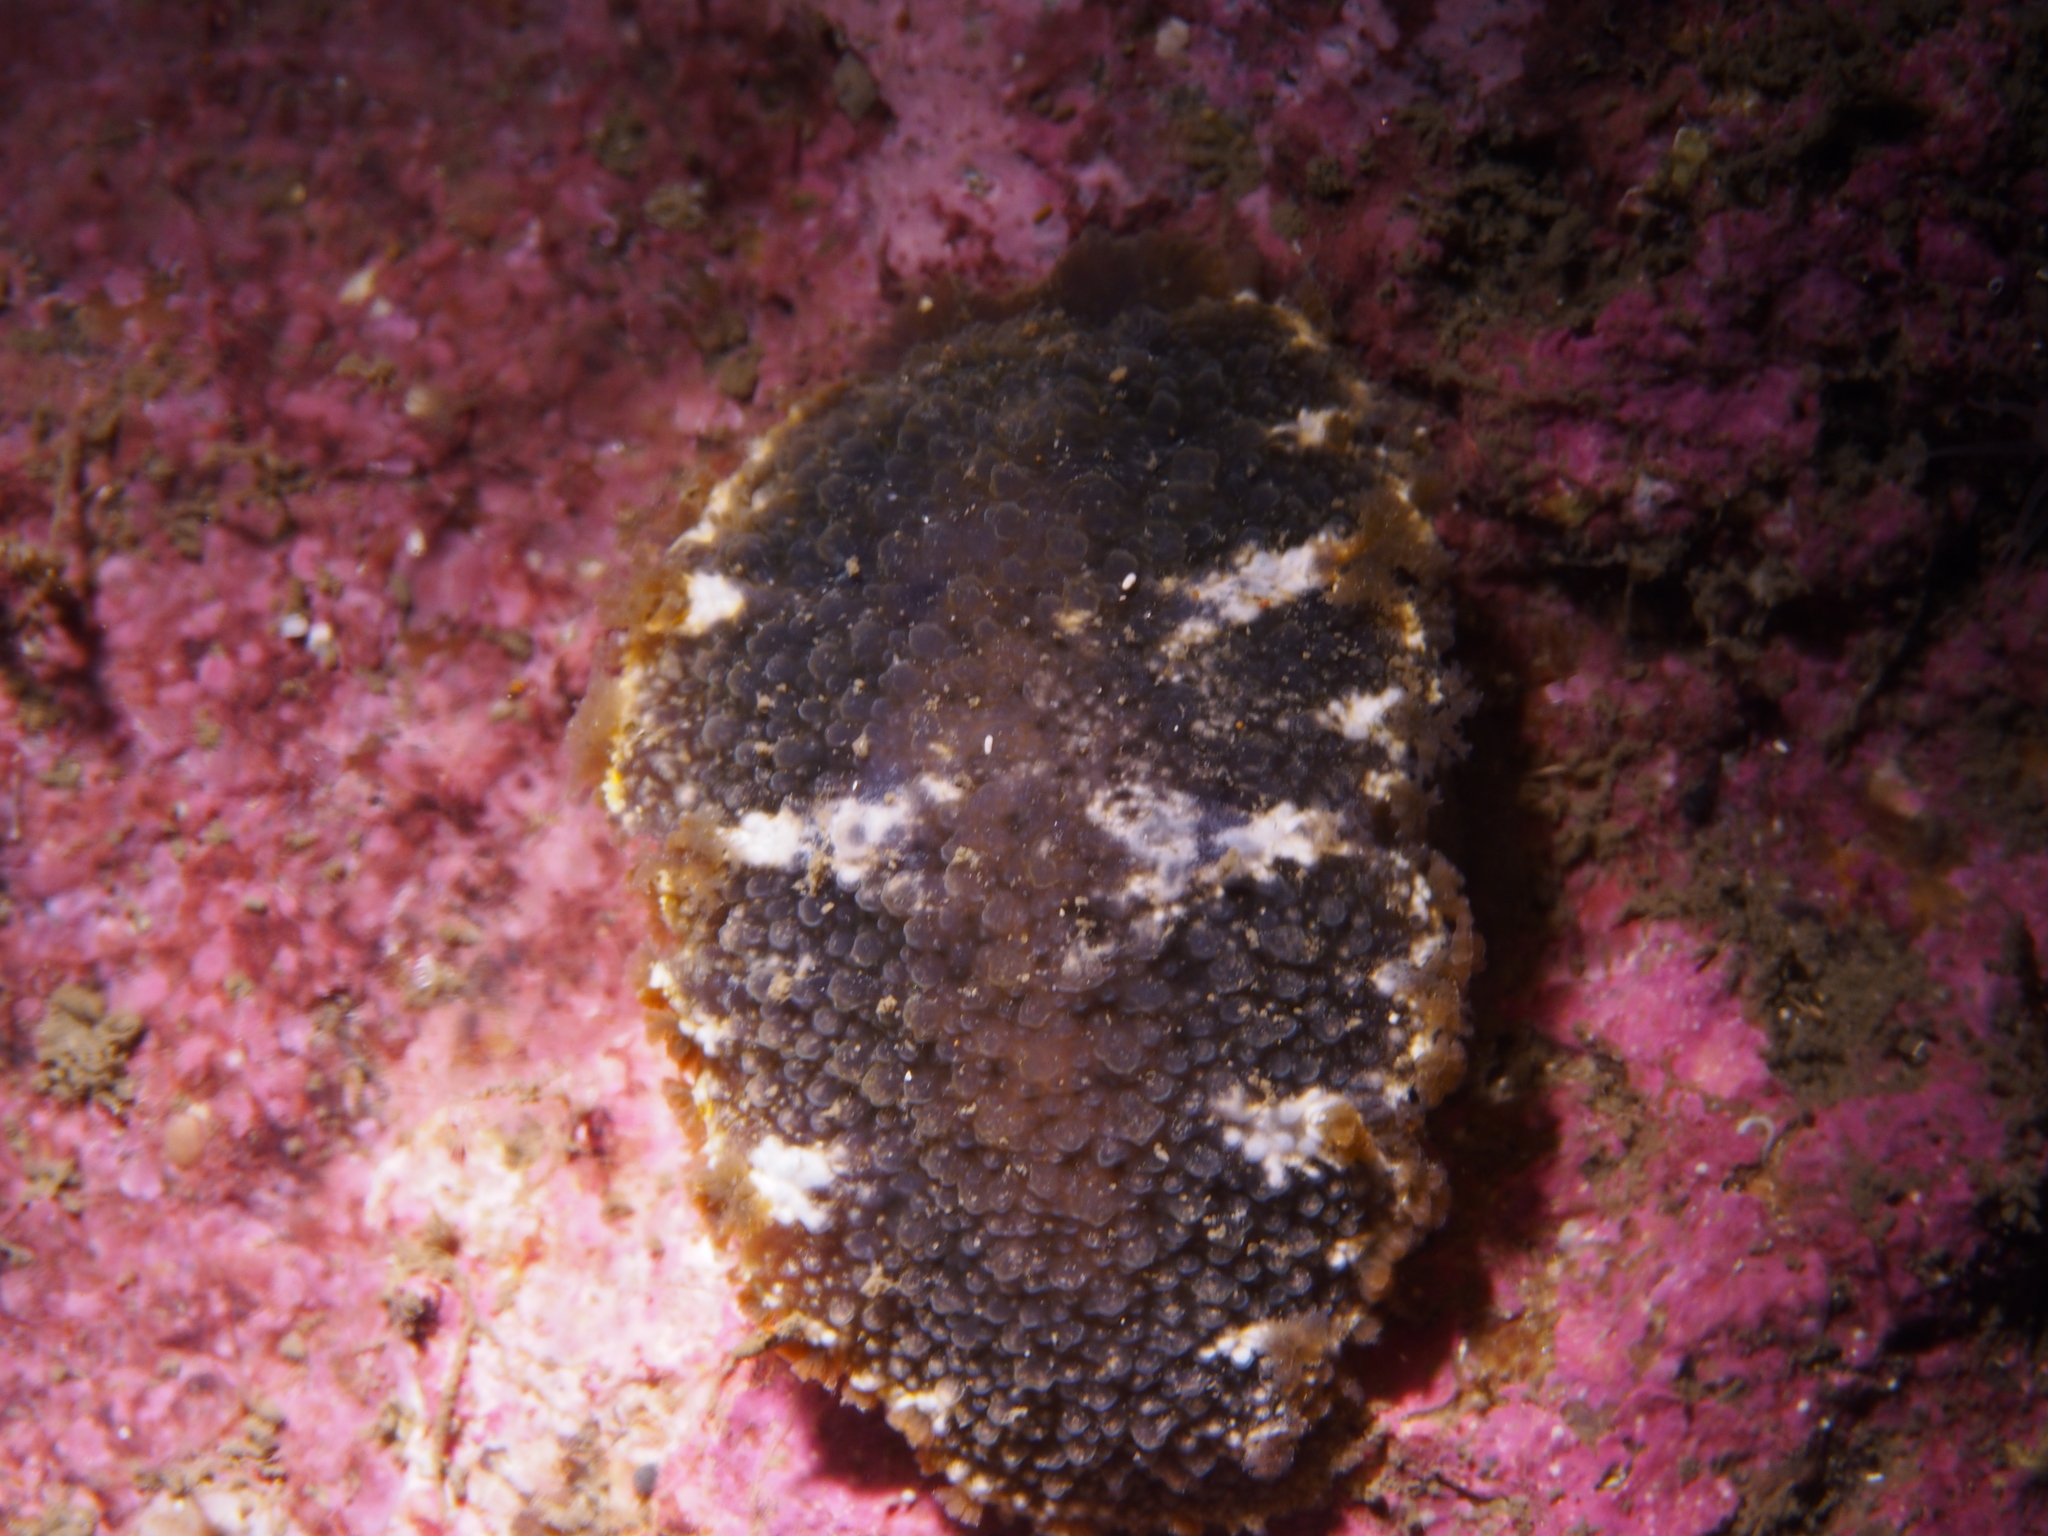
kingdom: Animalia
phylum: Mollusca
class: Gastropoda
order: Nudibranchia
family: Tritoniidae
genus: Tritonia
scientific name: Tritonia hombergii
